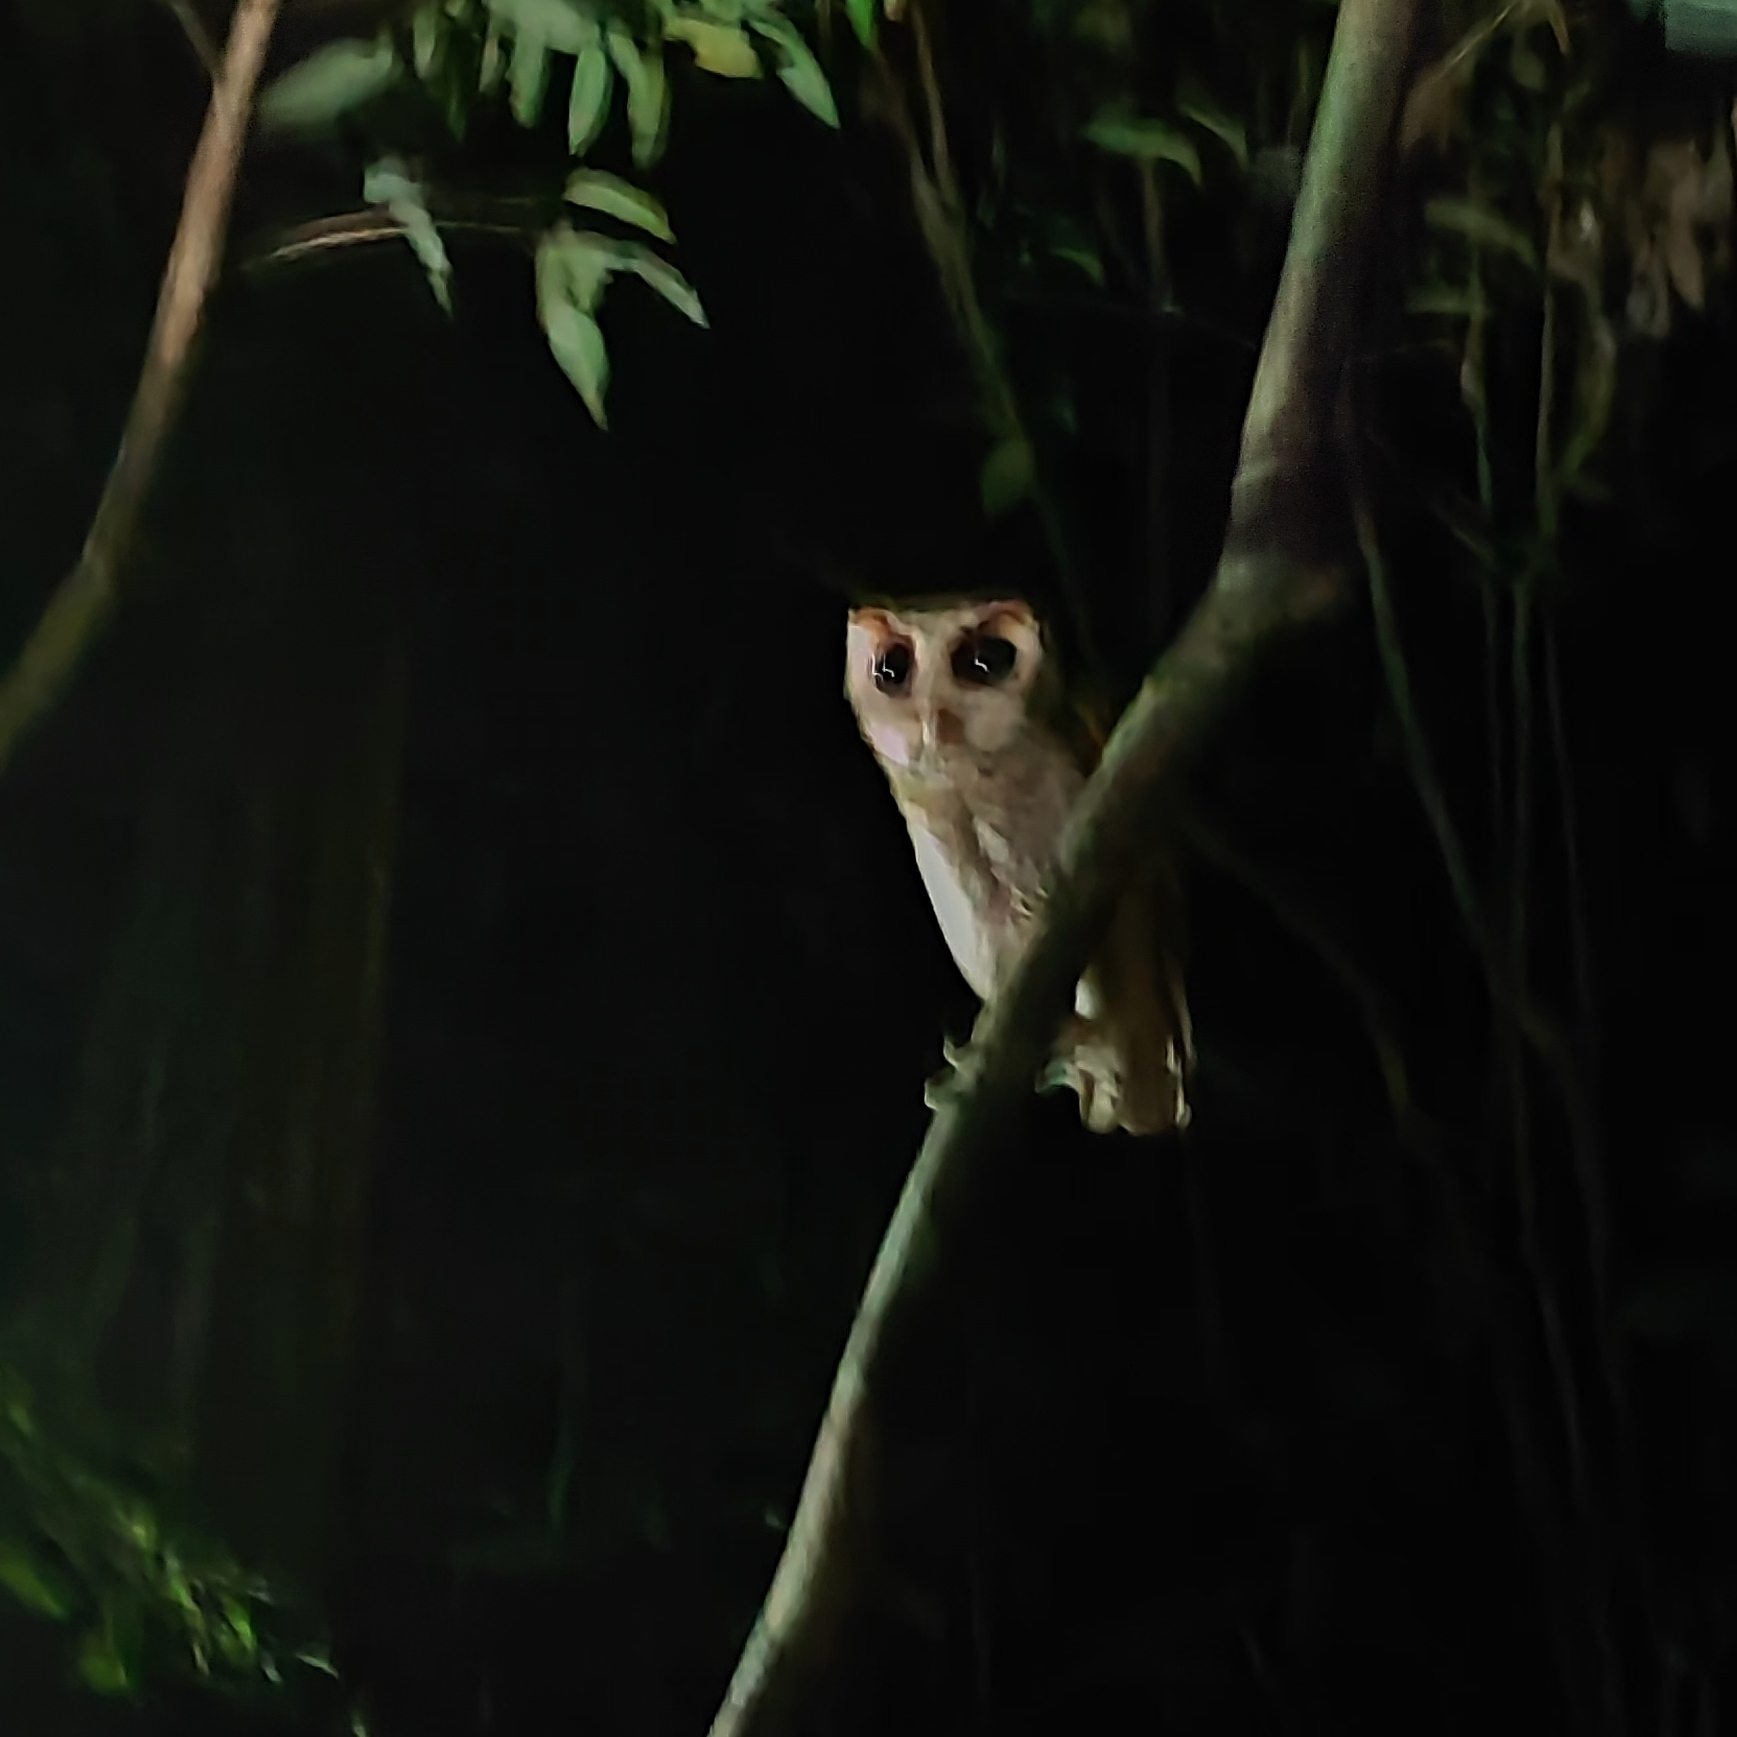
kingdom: Animalia
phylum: Chordata
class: Aves
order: Strigiformes
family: Tytonidae
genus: Phodilus
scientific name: Phodilus badius
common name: Oriental bay-owl
